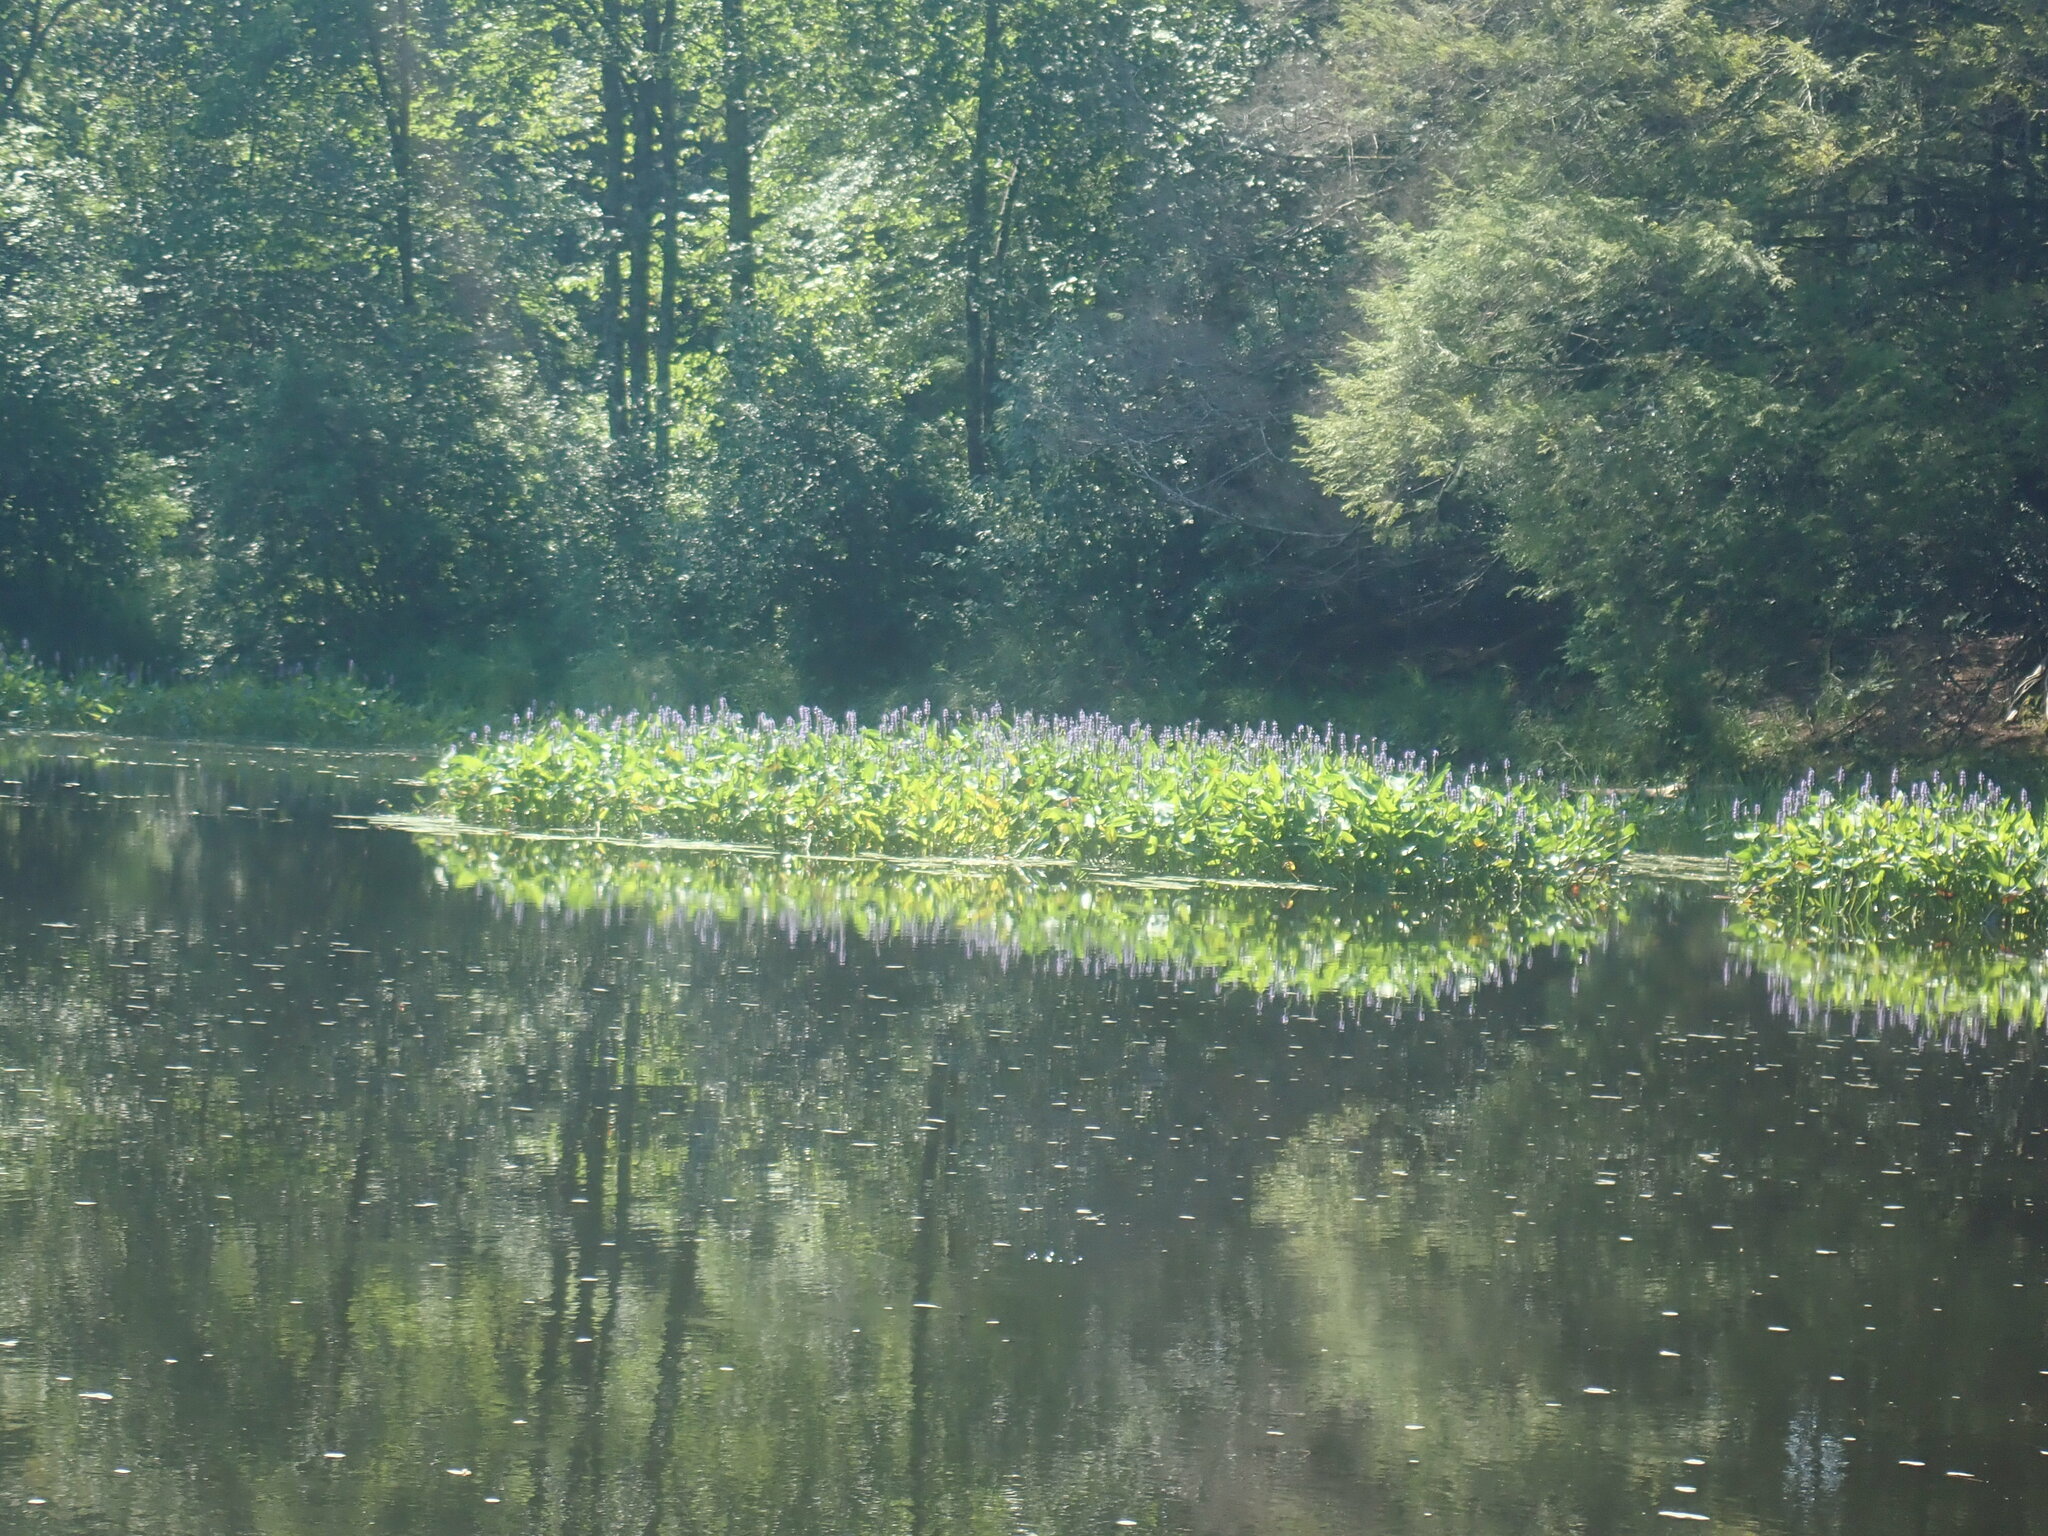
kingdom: Plantae
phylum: Tracheophyta
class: Liliopsida
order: Commelinales
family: Pontederiaceae
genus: Pontederia
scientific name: Pontederia cordata
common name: Pickerelweed
